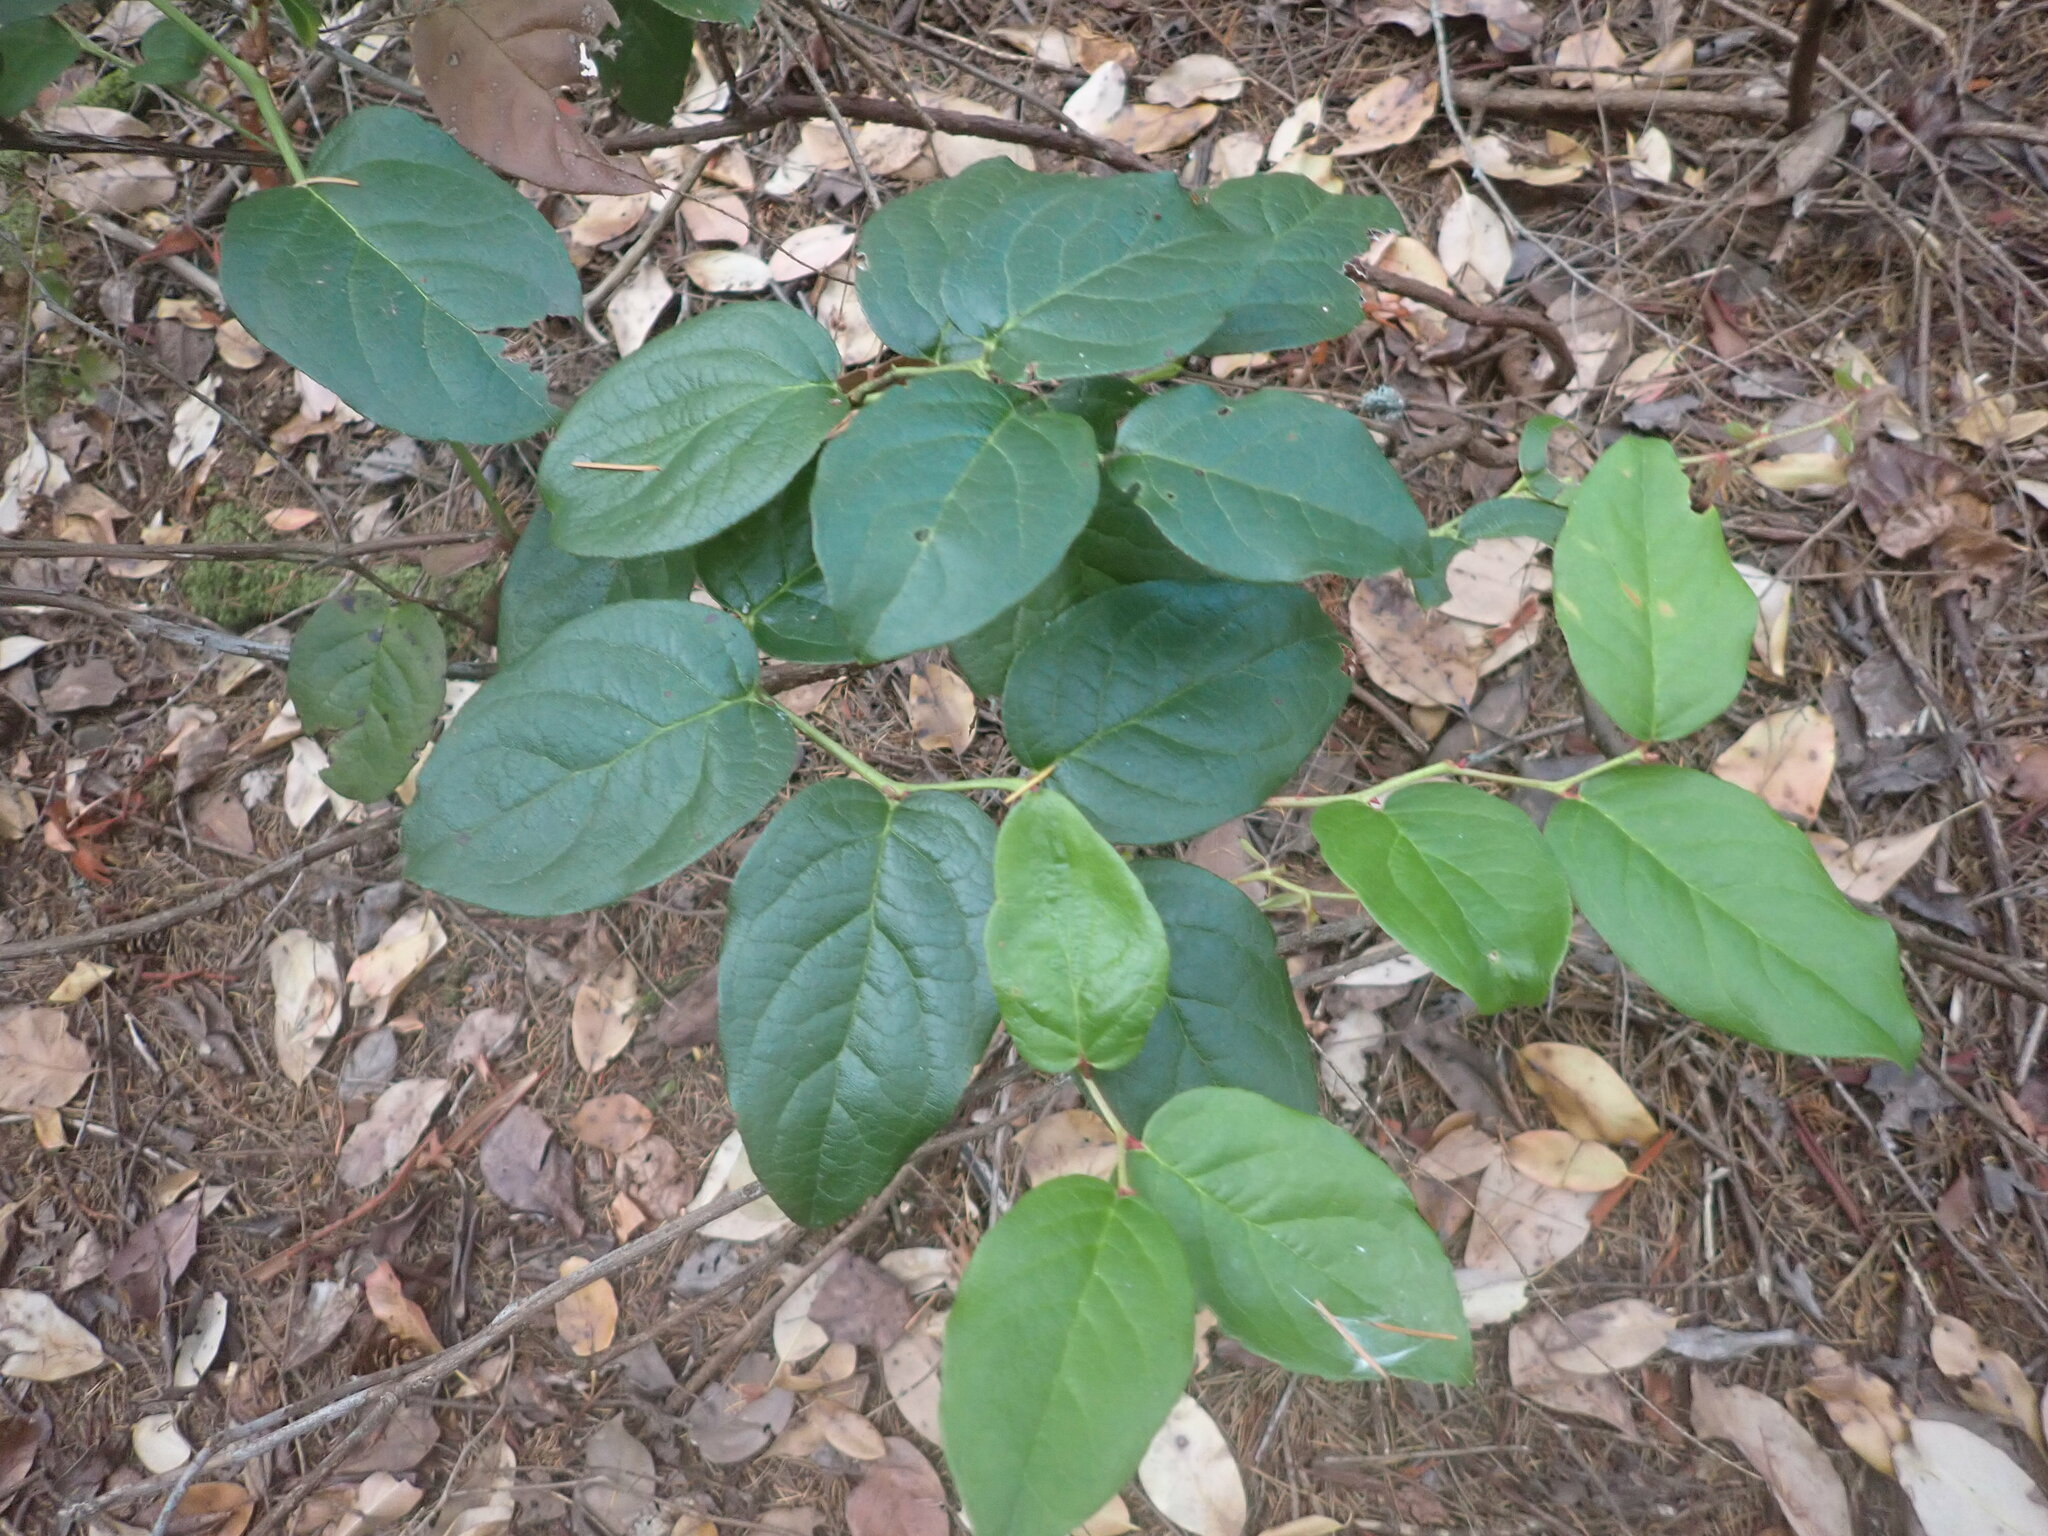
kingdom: Plantae
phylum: Tracheophyta
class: Magnoliopsida
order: Ericales
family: Ericaceae
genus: Gaultheria
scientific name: Gaultheria shallon
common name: Shallon
